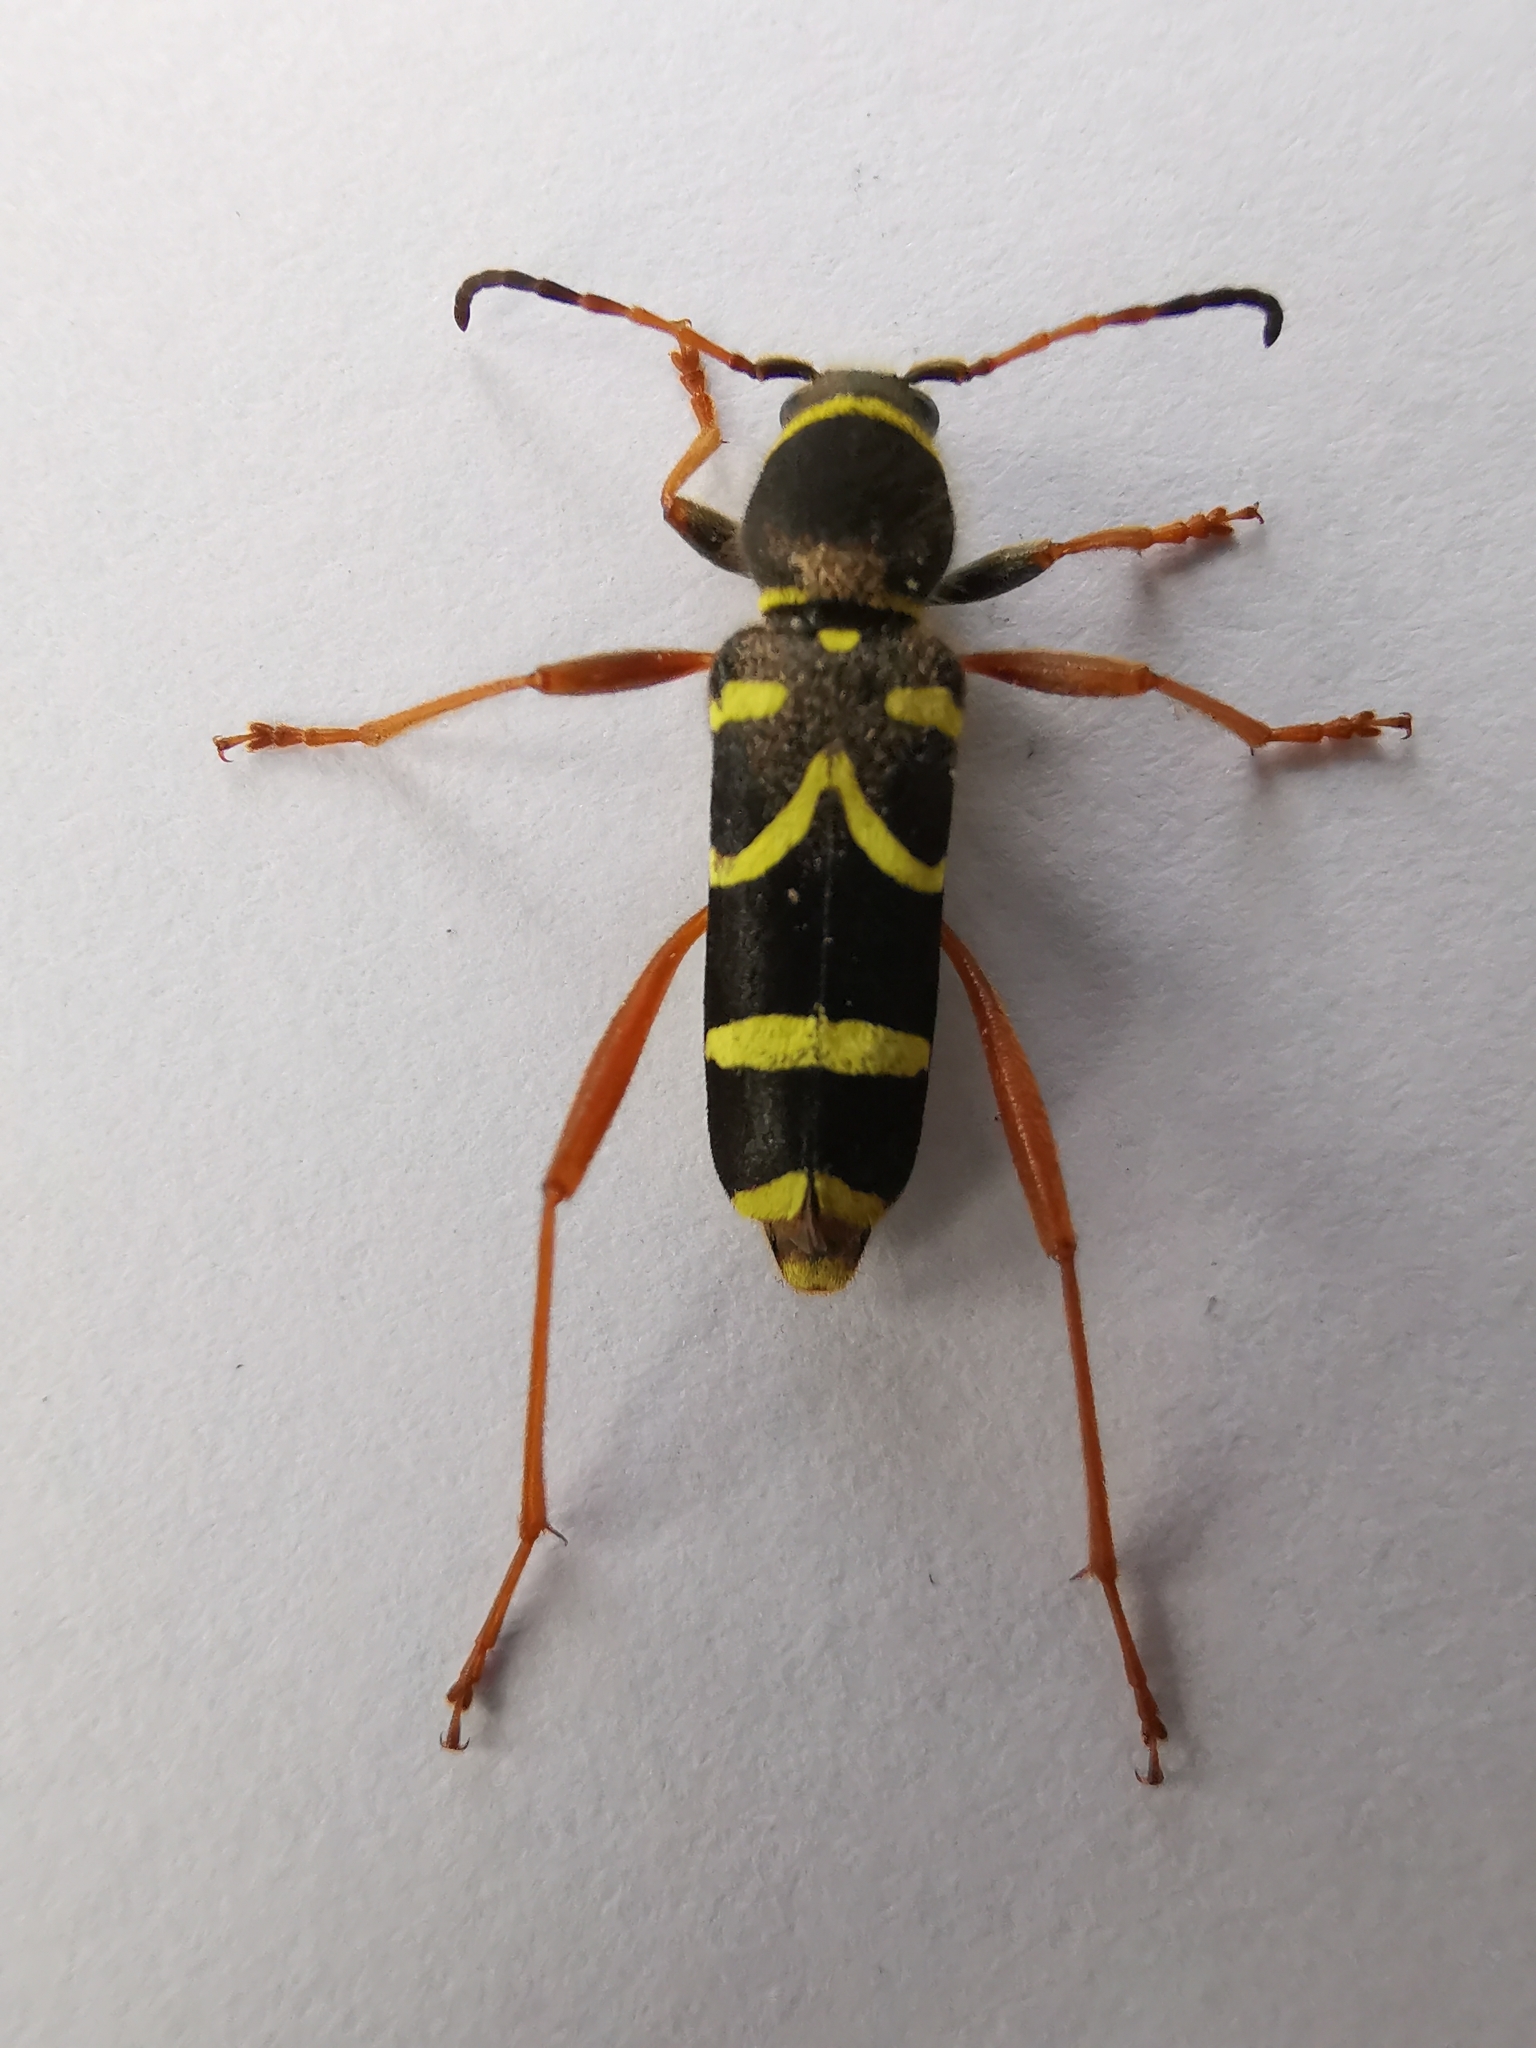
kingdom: Animalia
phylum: Arthropoda
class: Insecta
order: Coleoptera
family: Cerambycidae
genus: Clytus
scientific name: Clytus arietis
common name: Wasp beetle
